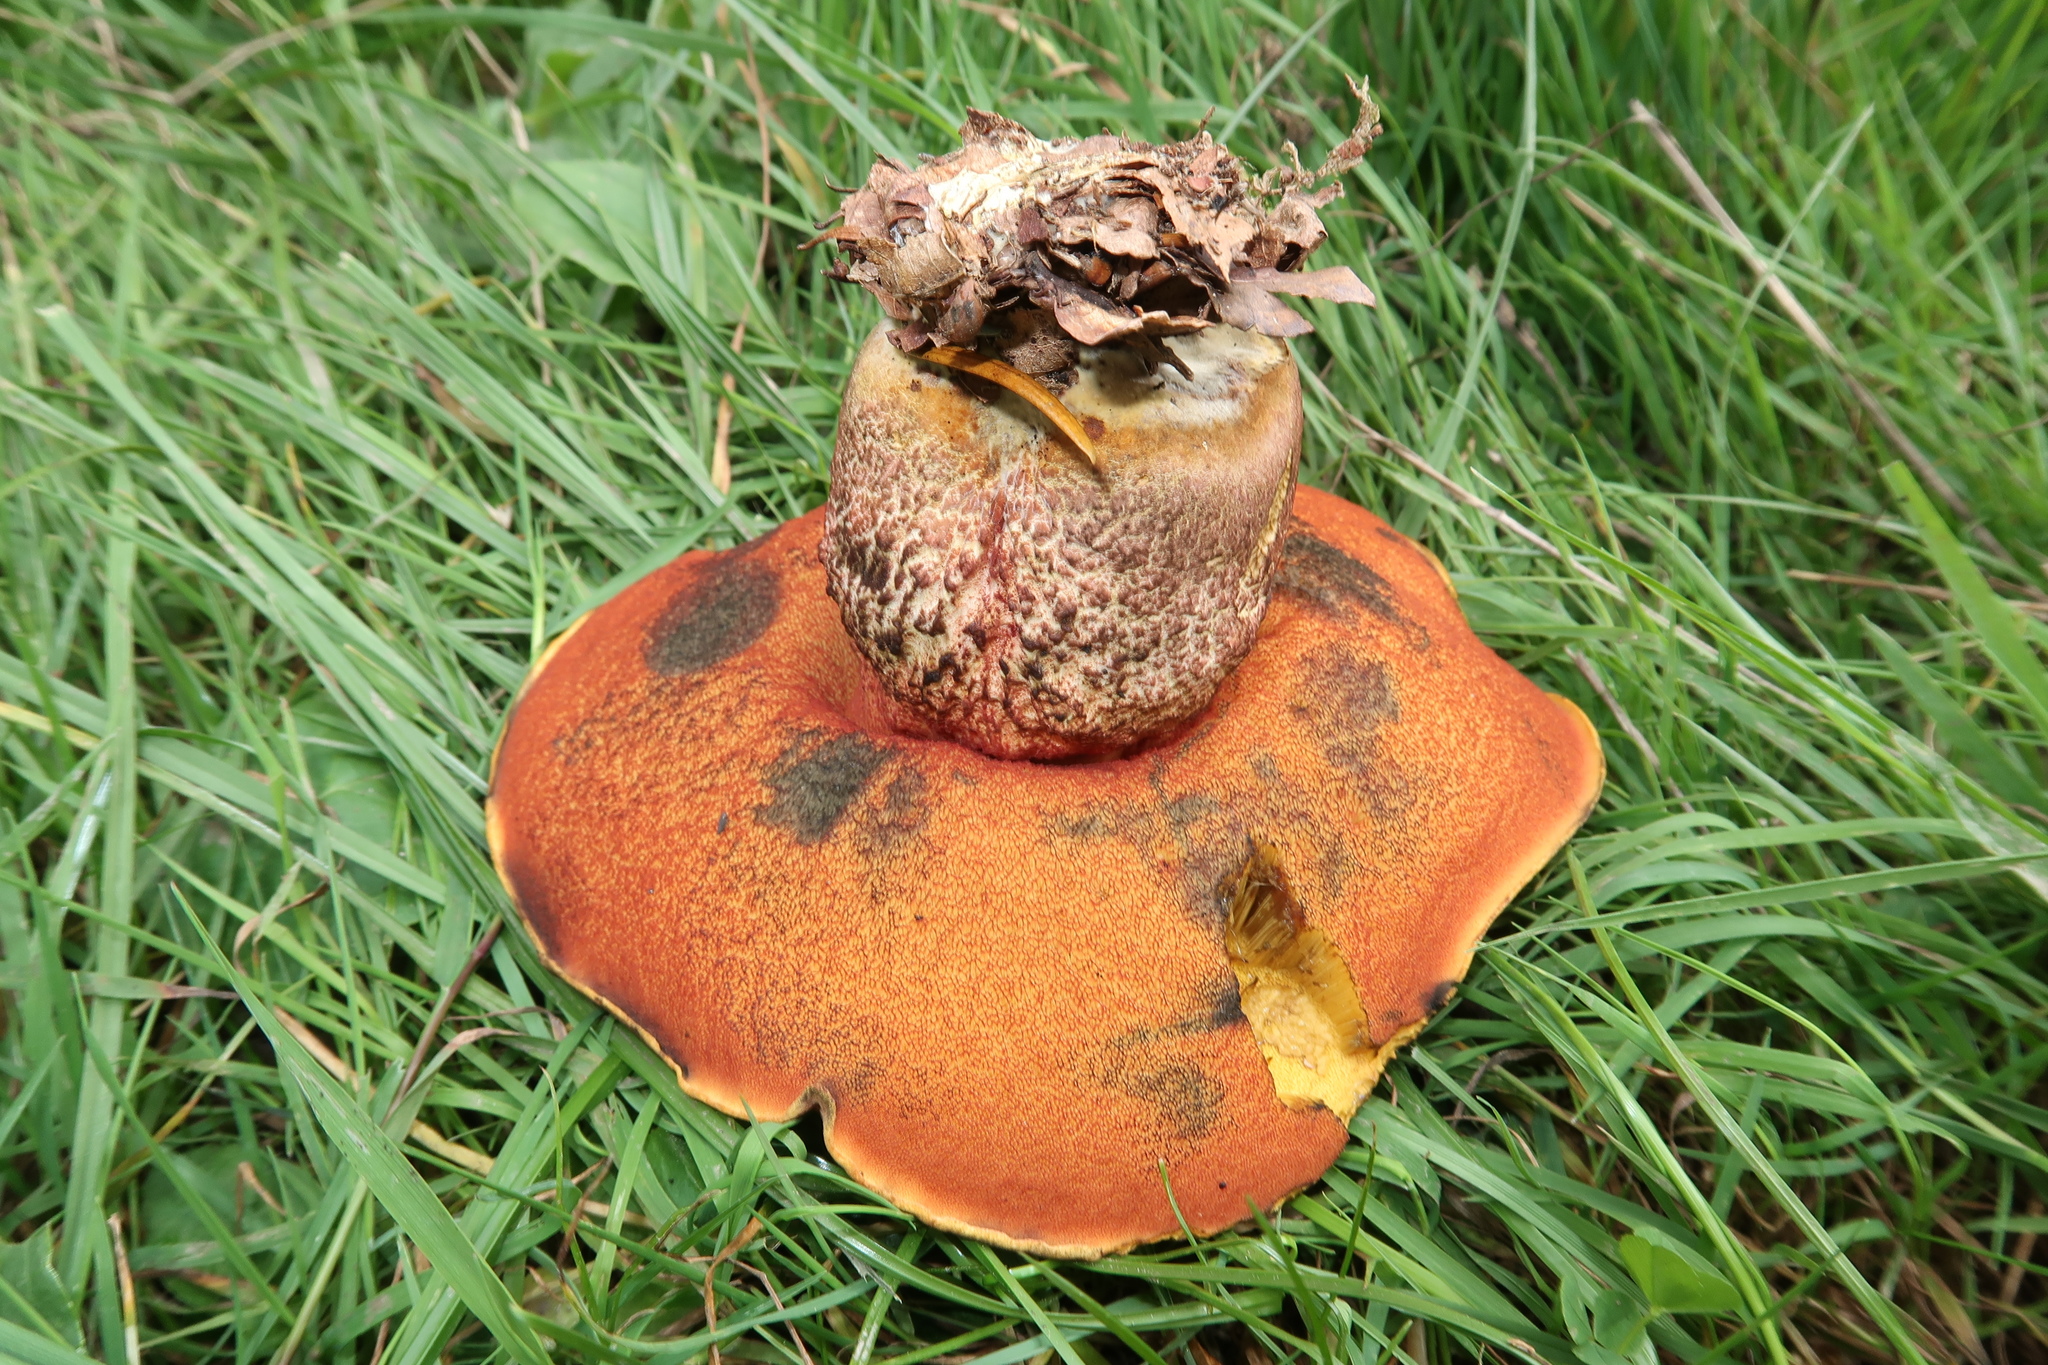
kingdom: Fungi
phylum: Basidiomycota
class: Agaricomycetes
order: Boletales
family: Boletaceae
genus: Neoboletus
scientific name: Neoboletus luridiformis
